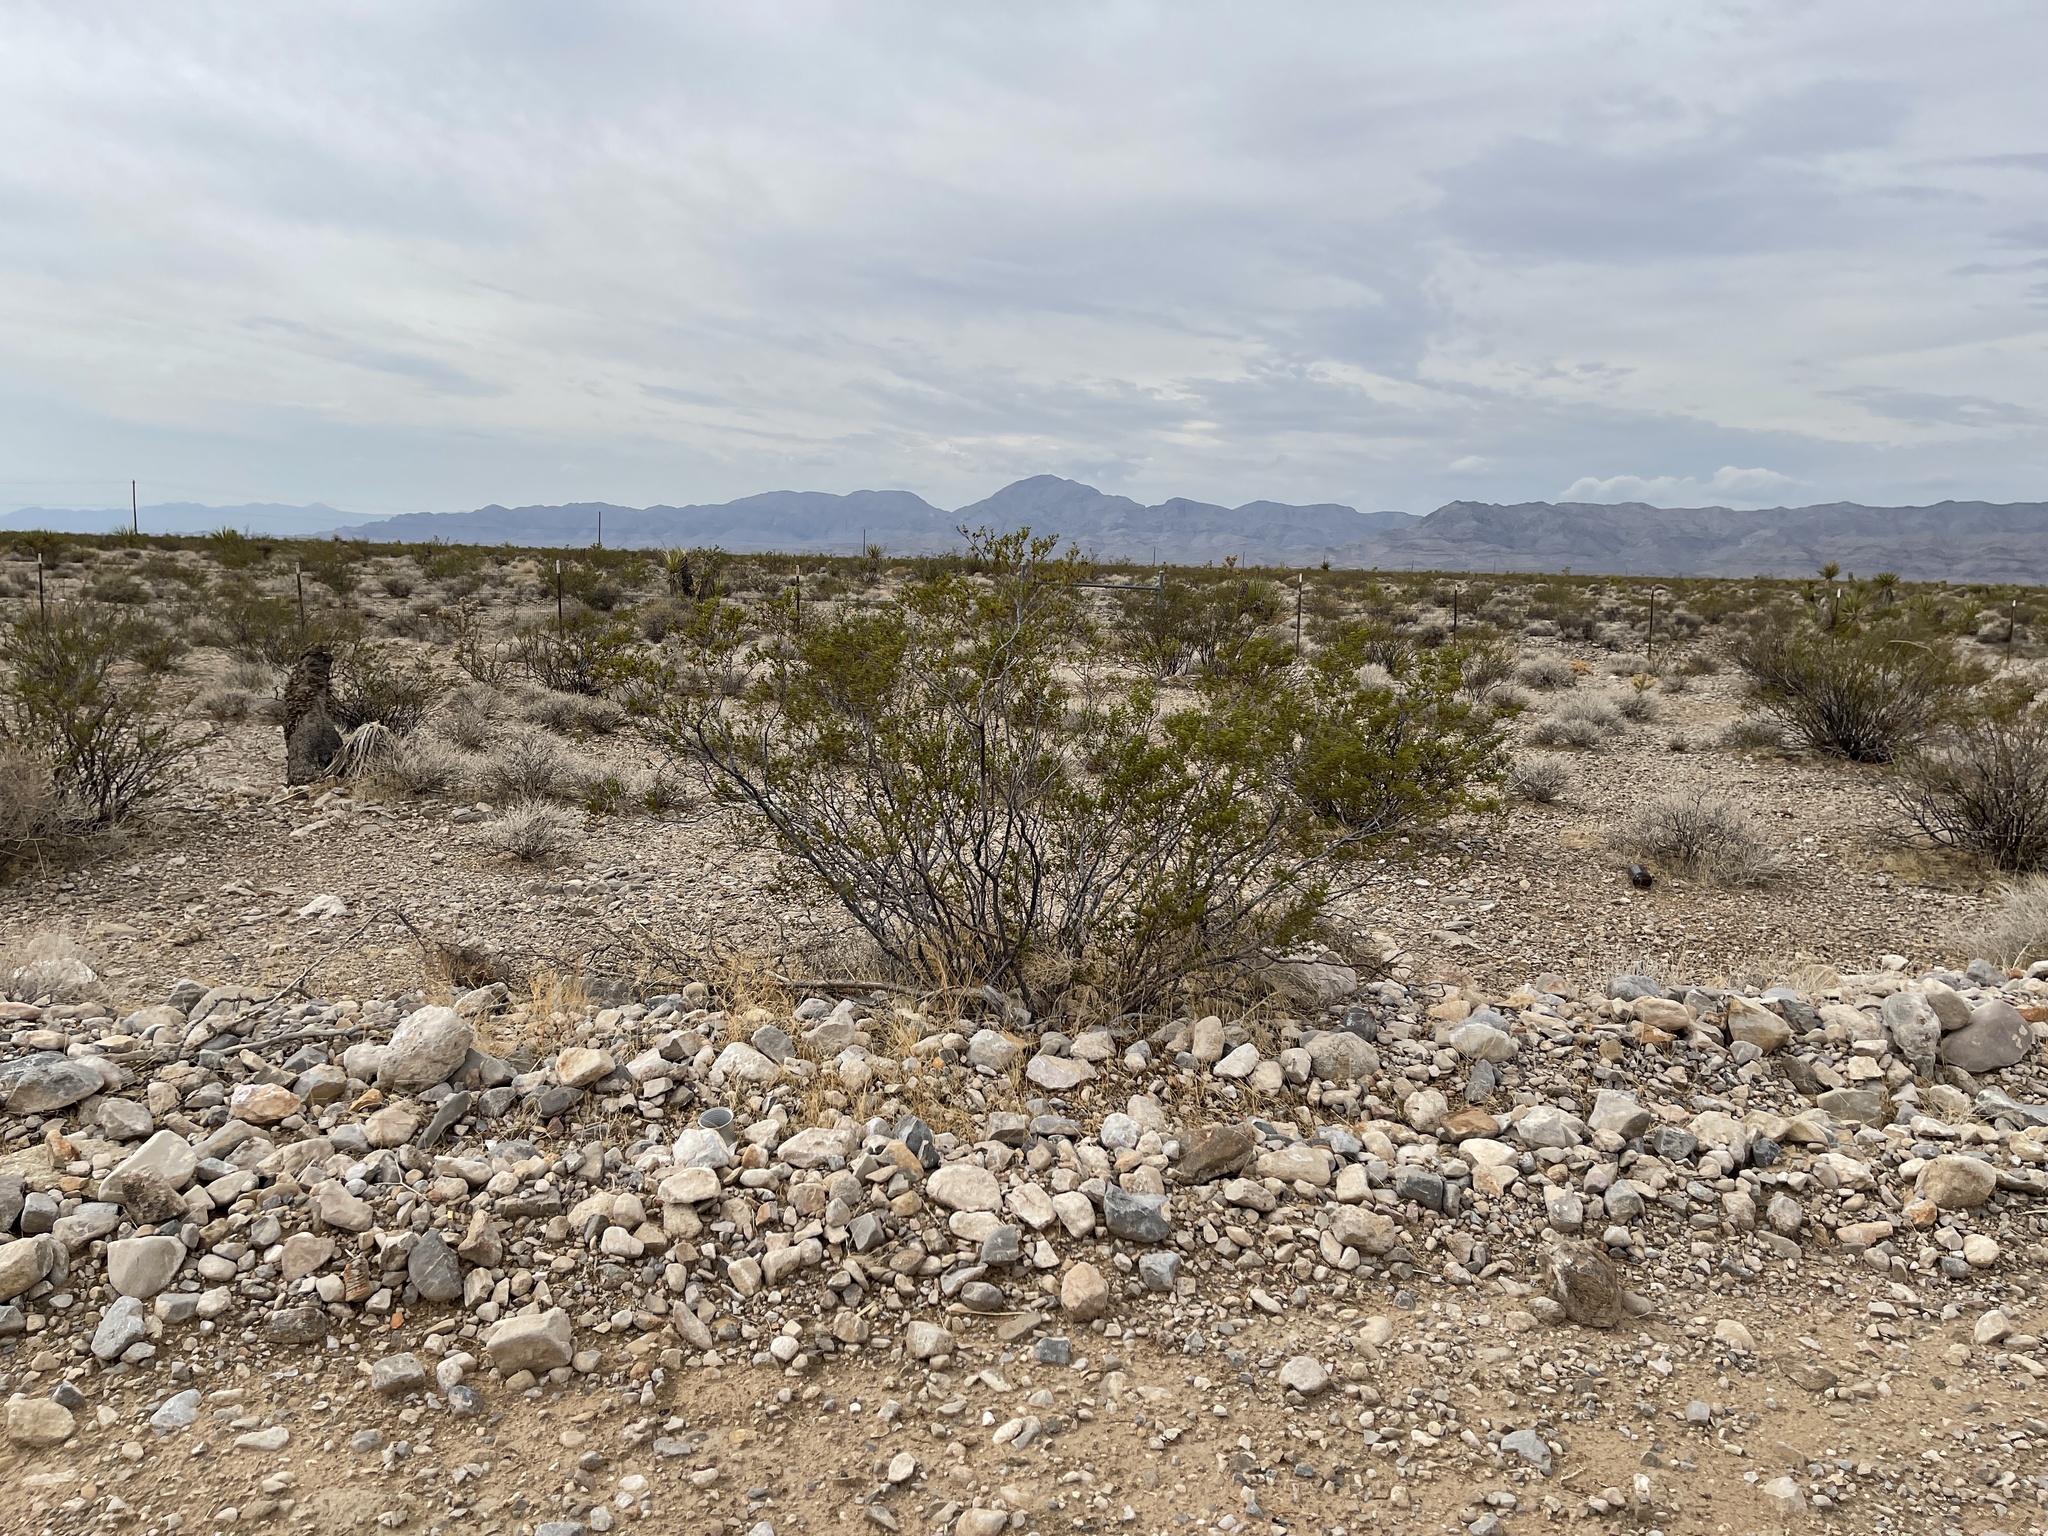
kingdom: Plantae
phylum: Tracheophyta
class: Magnoliopsida
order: Zygophyllales
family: Zygophyllaceae
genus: Larrea
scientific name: Larrea tridentata
